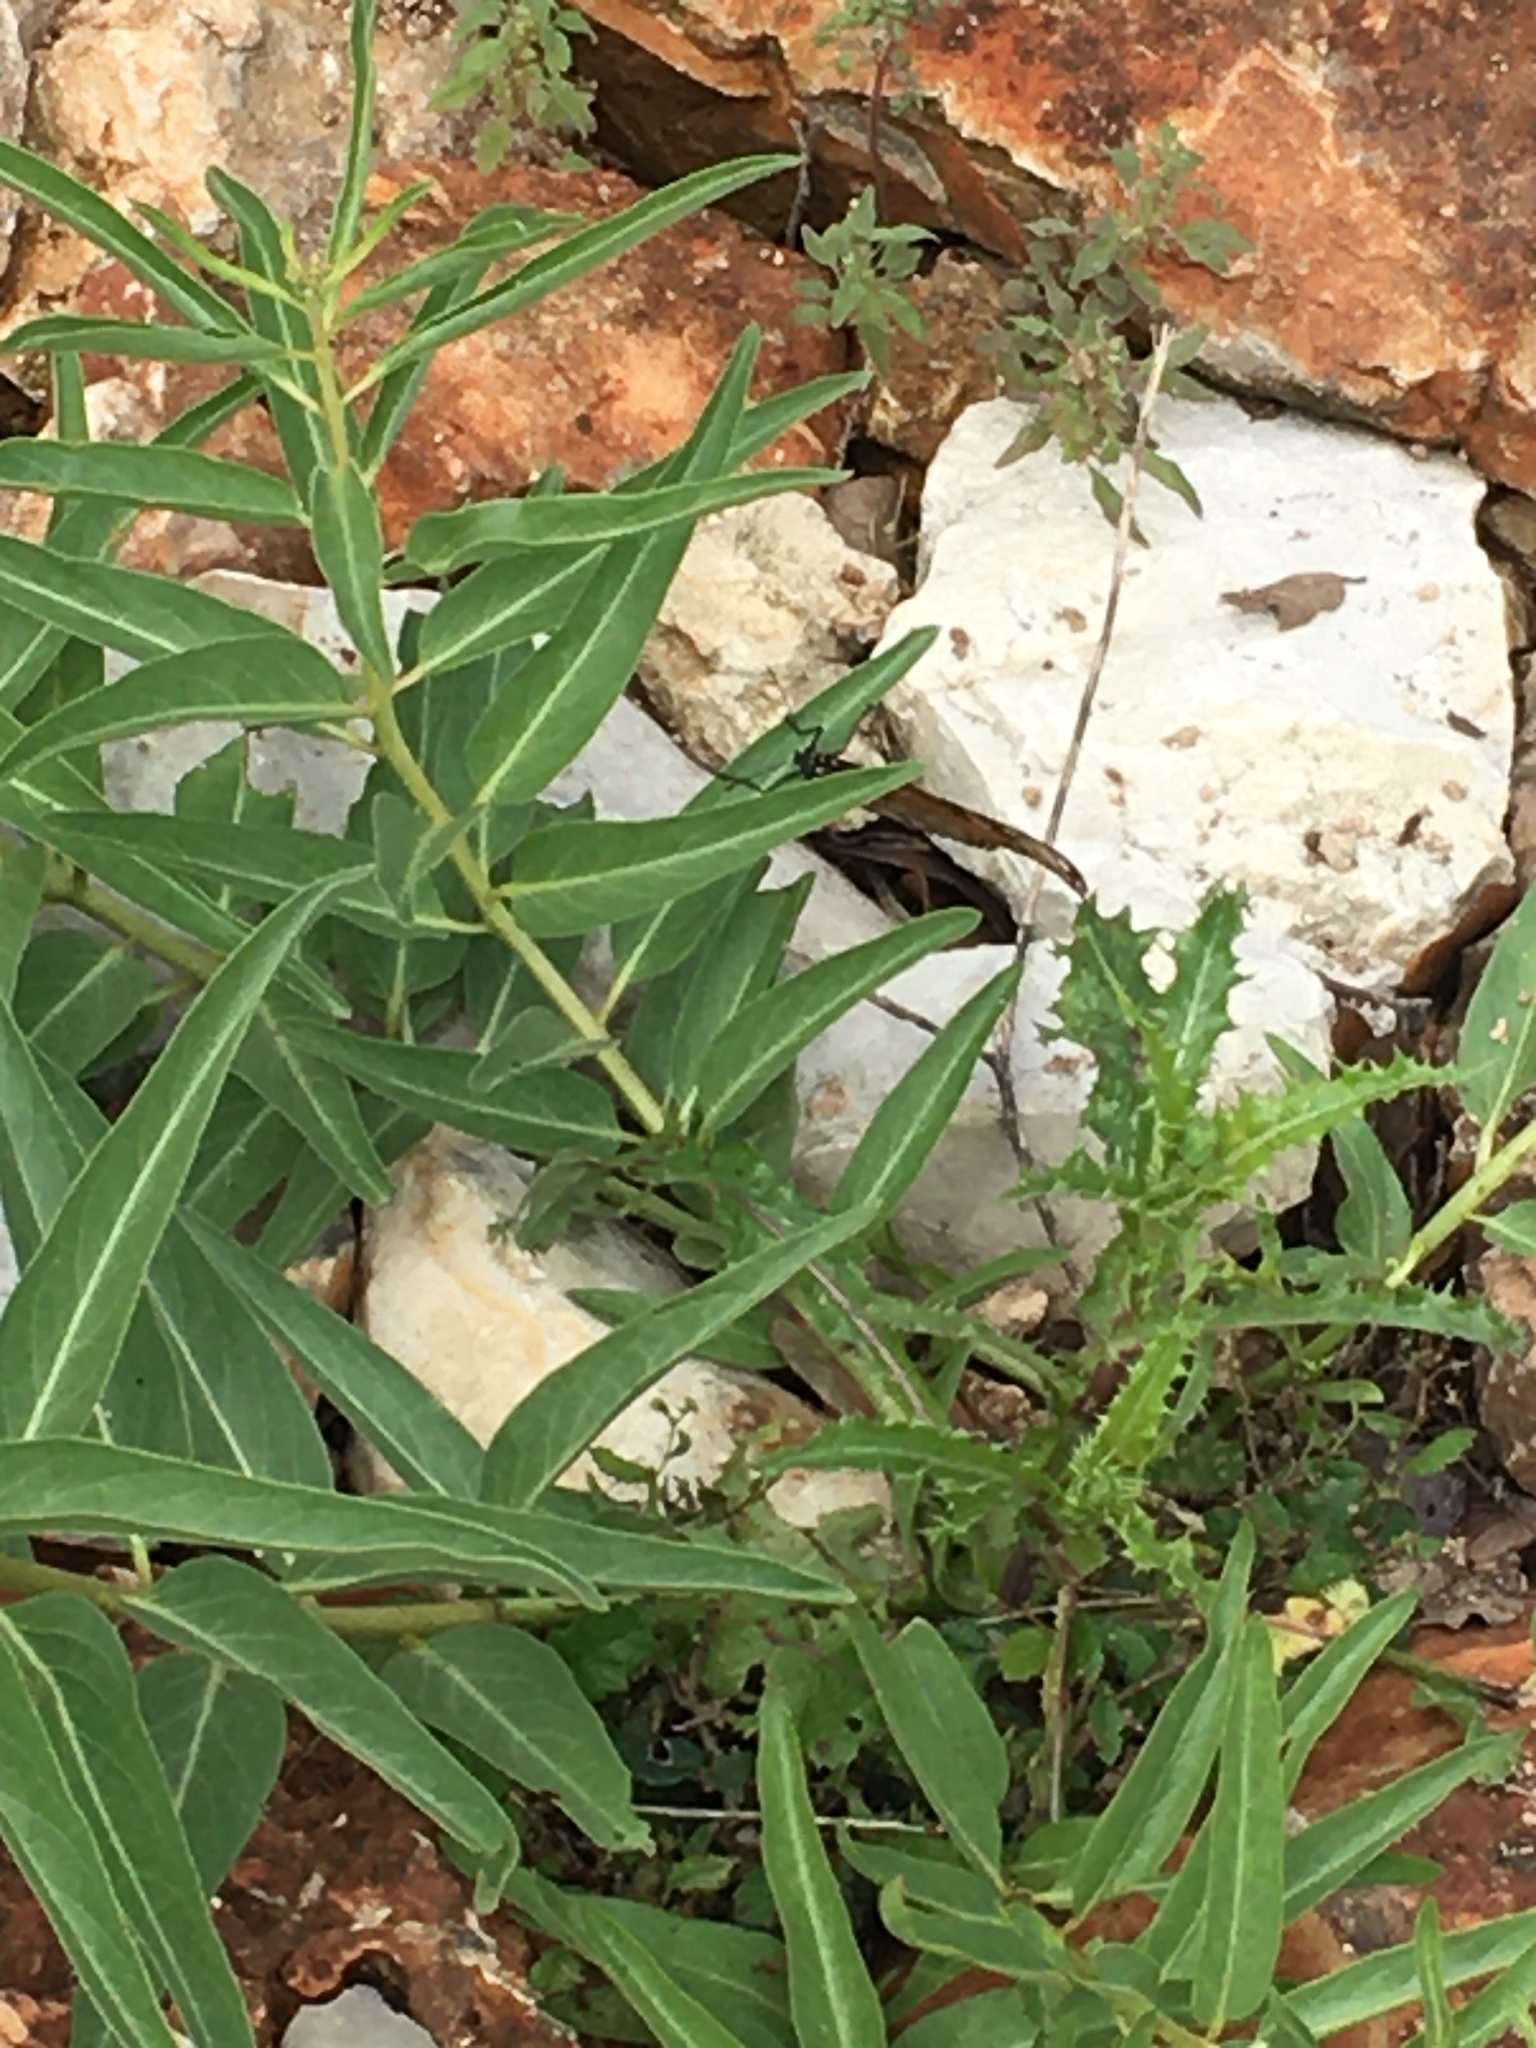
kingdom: Plantae
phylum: Tracheophyta
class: Magnoliopsida
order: Gentianales
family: Apocynaceae
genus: Asclepias
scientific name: Asclepias asperula
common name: Antelope horns
